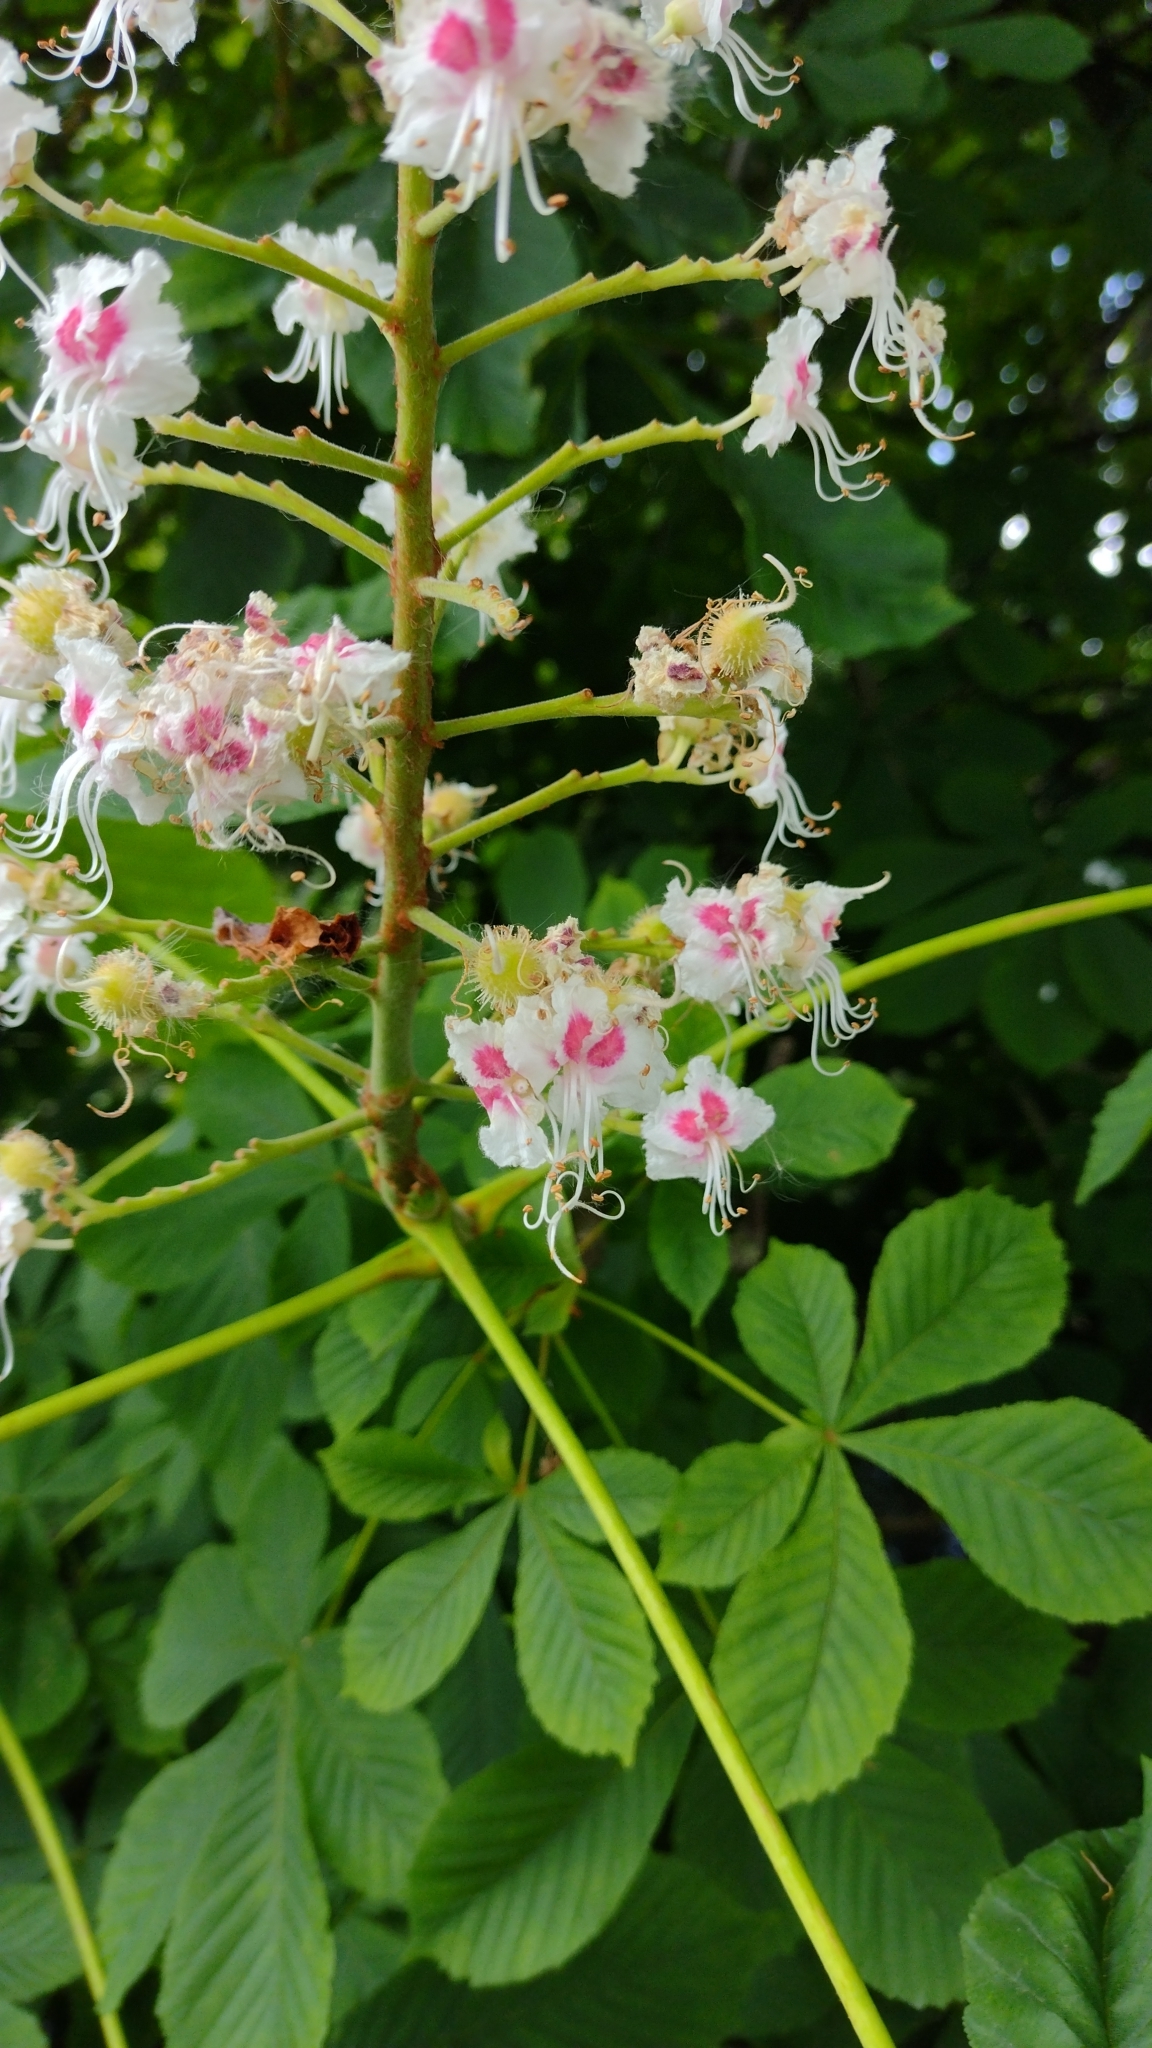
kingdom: Plantae
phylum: Tracheophyta
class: Magnoliopsida
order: Sapindales
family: Sapindaceae
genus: Aesculus
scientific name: Aesculus hippocastanum
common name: Horse-chestnut
